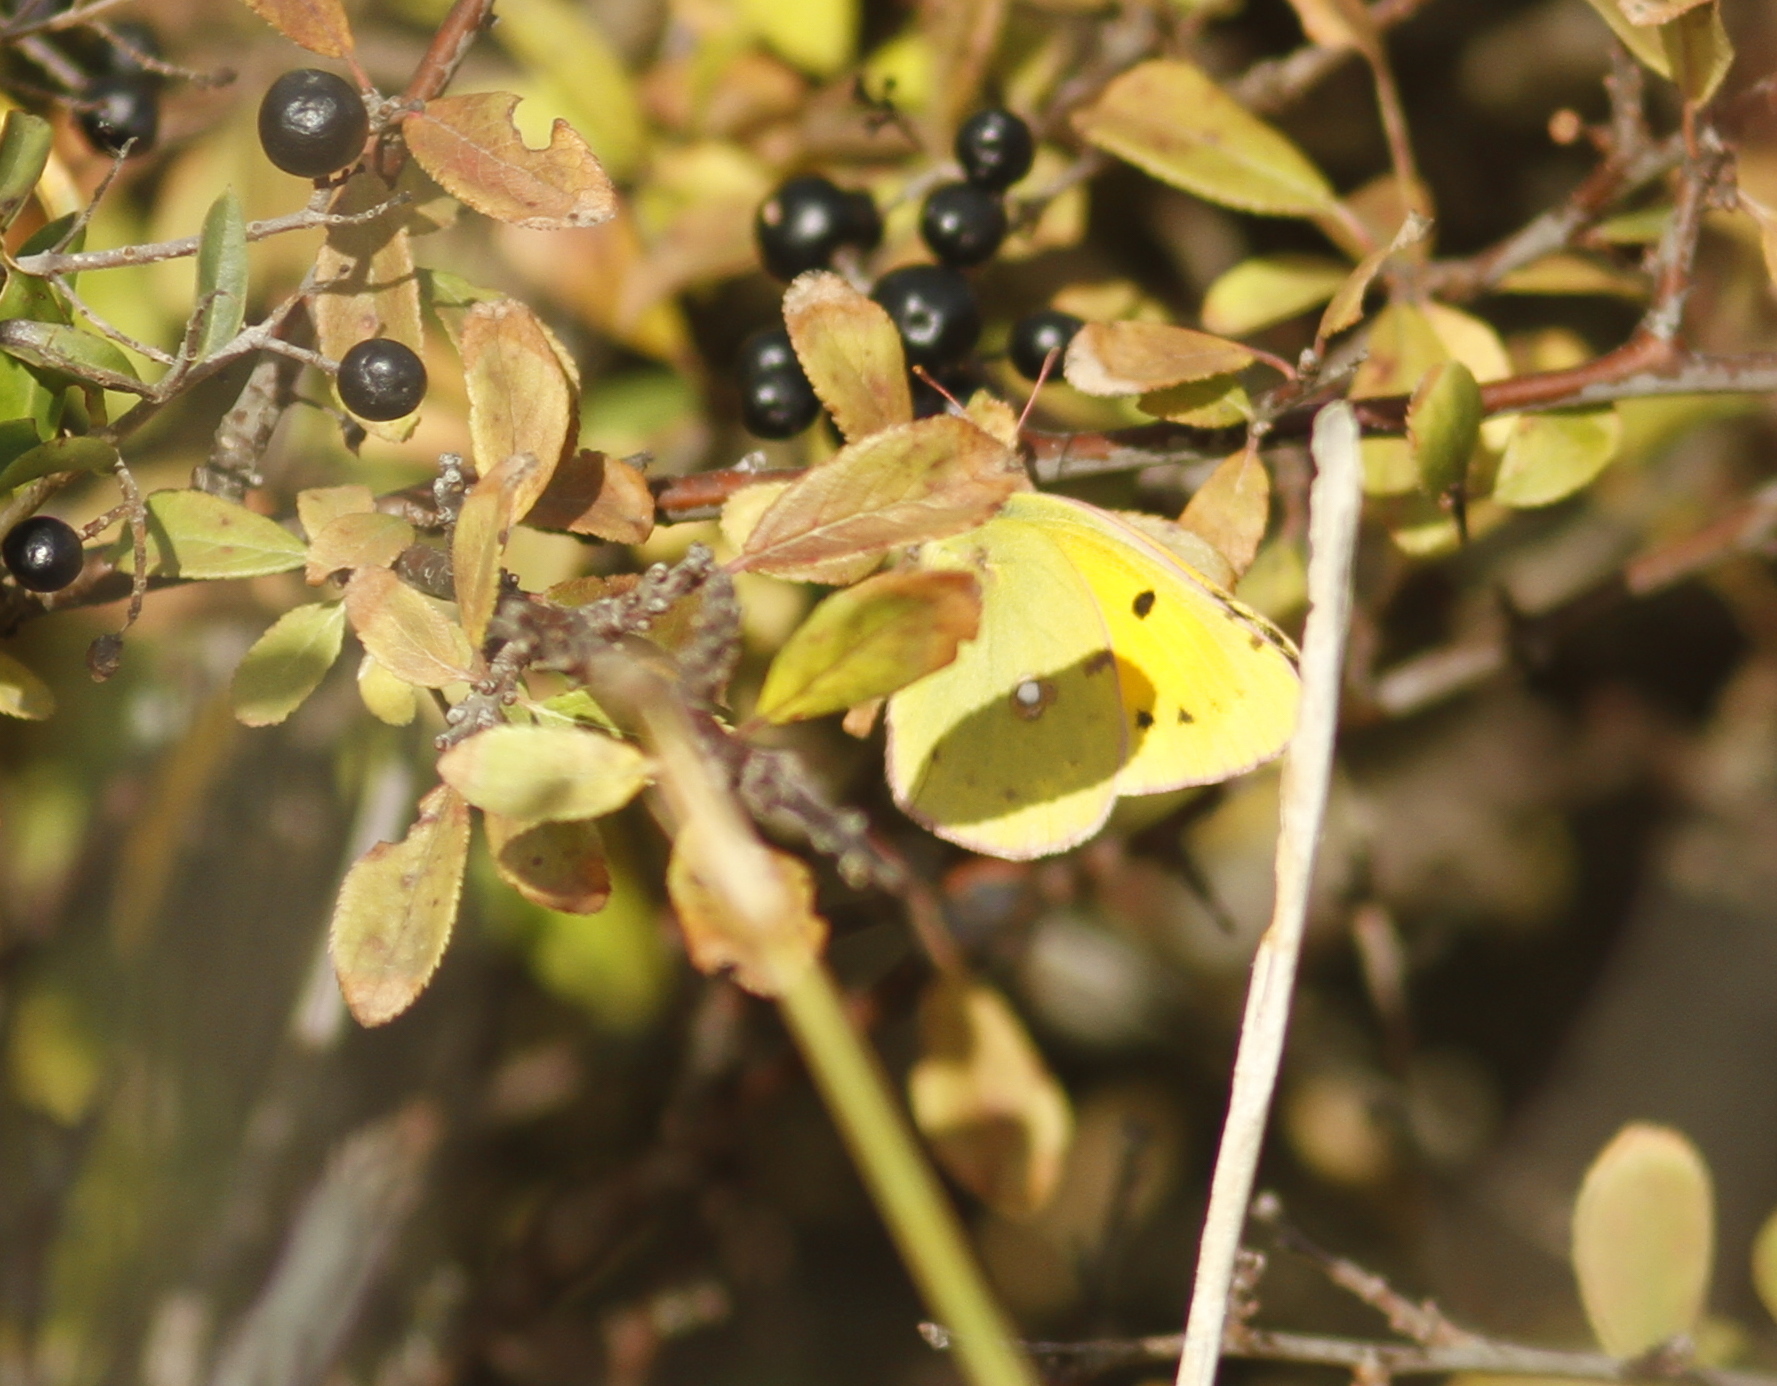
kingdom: Animalia
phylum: Arthropoda
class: Insecta
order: Lepidoptera
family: Pieridae
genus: Colias
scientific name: Colias croceus
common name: Clouded yellow
